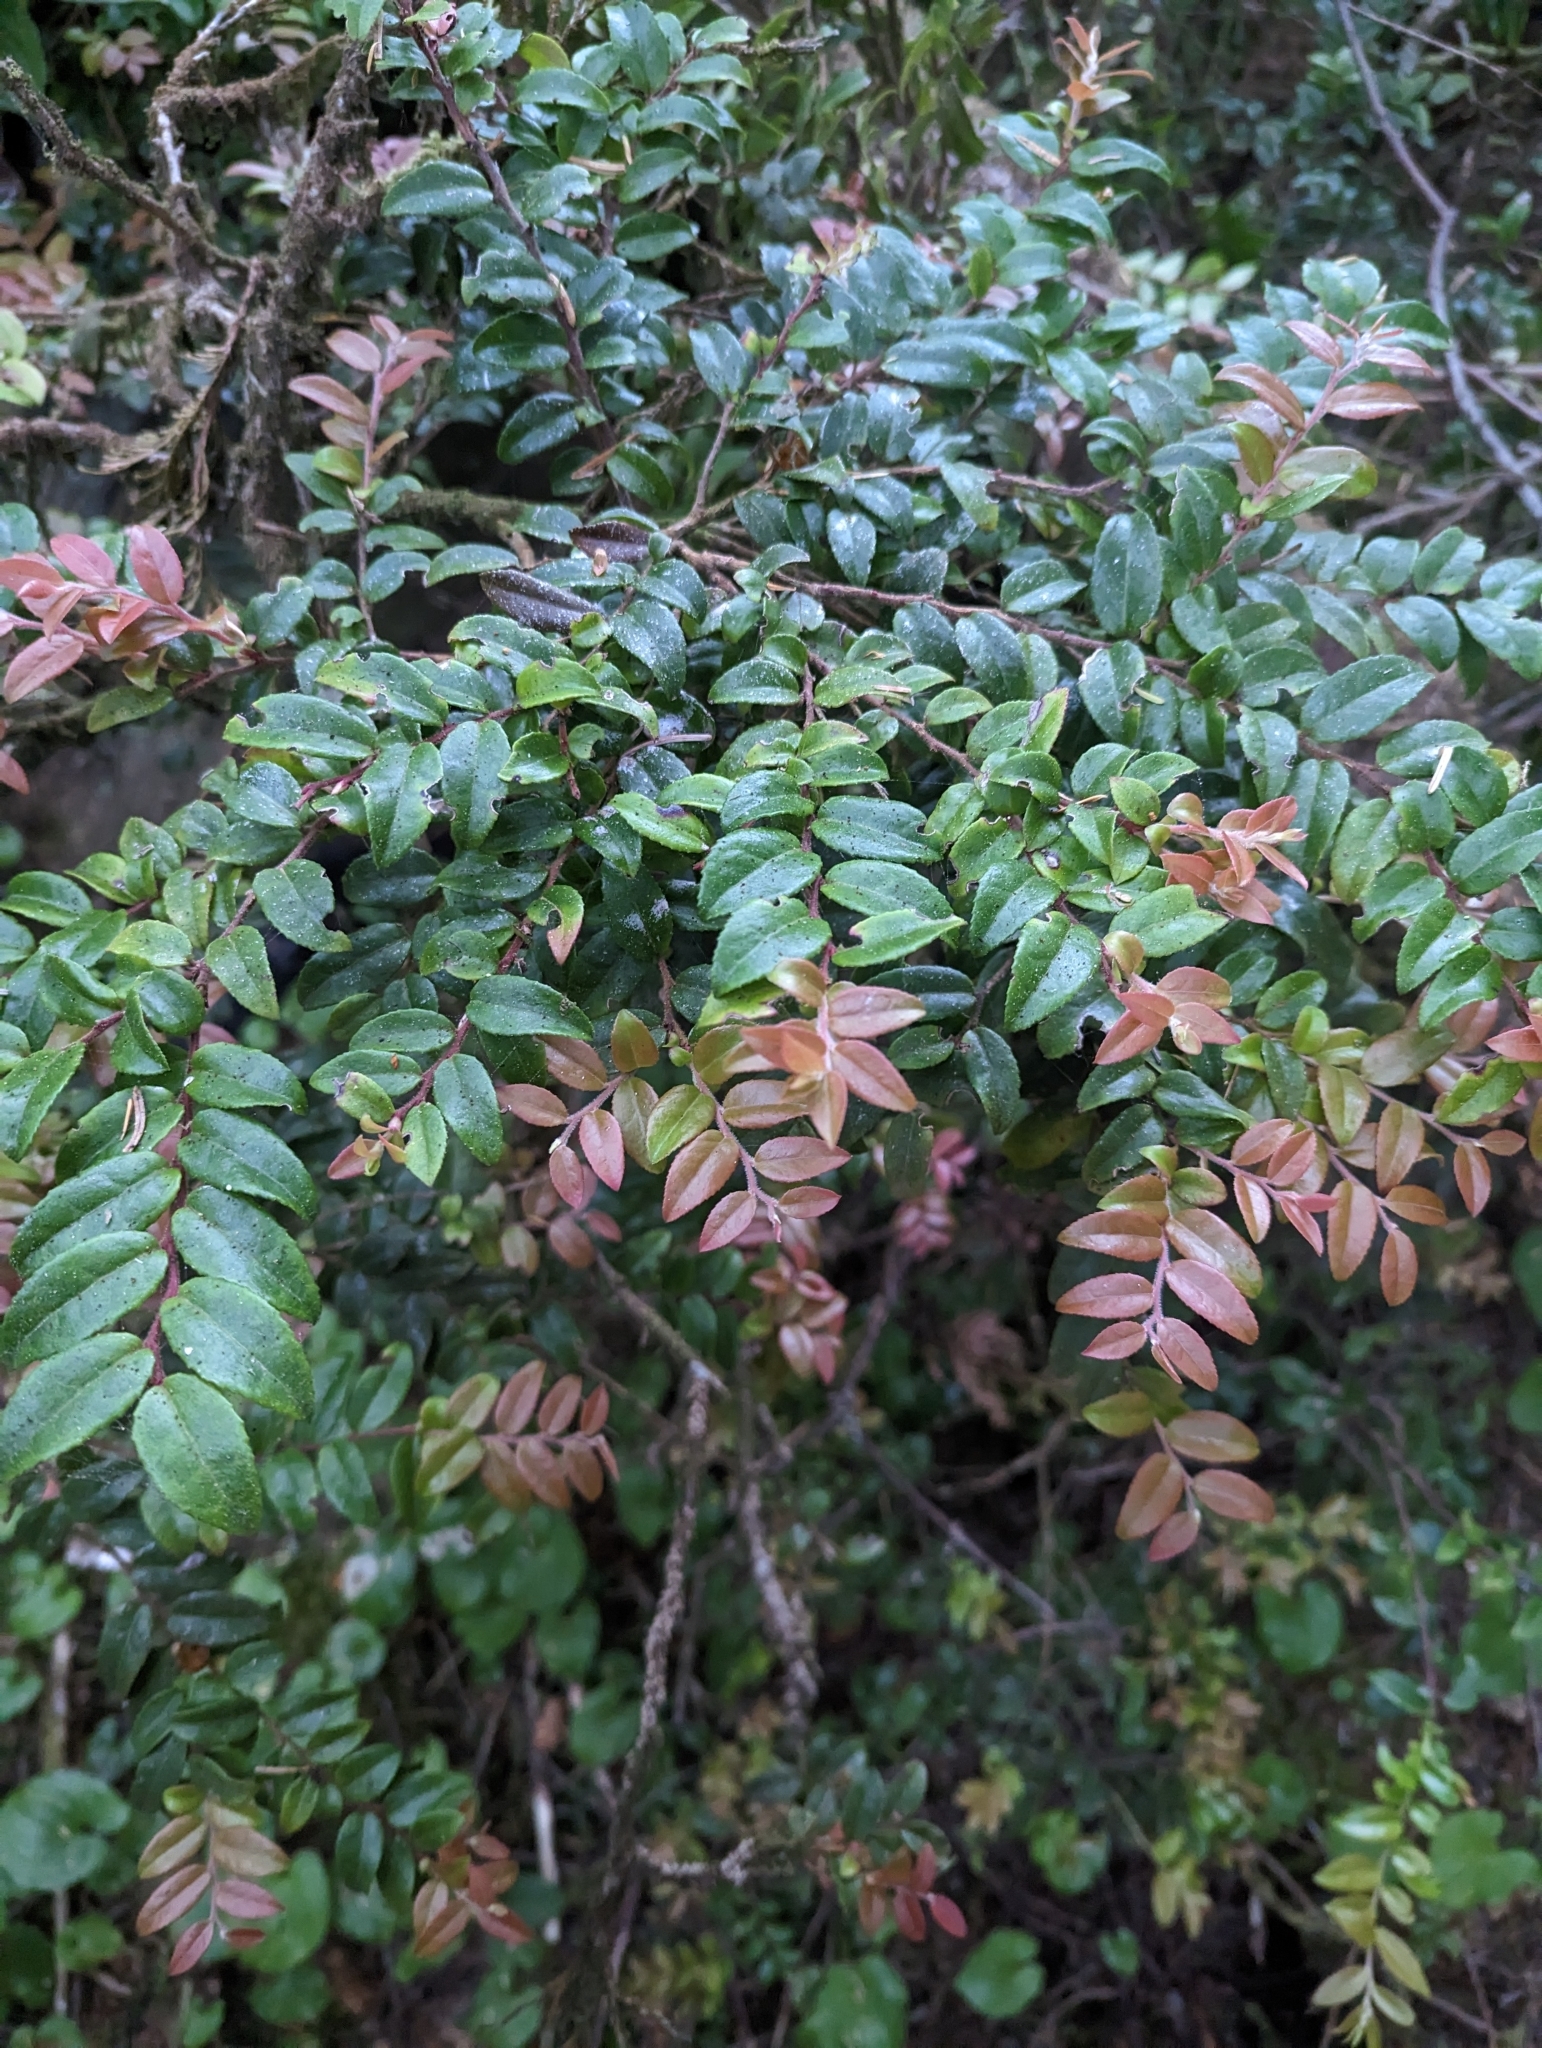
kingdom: Plantae
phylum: Tracheophyta
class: Magnoliopsida
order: Ericales
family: Ericaceae
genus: Vaccinium
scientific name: Vaccinium ovatum
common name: California-huckleberry
